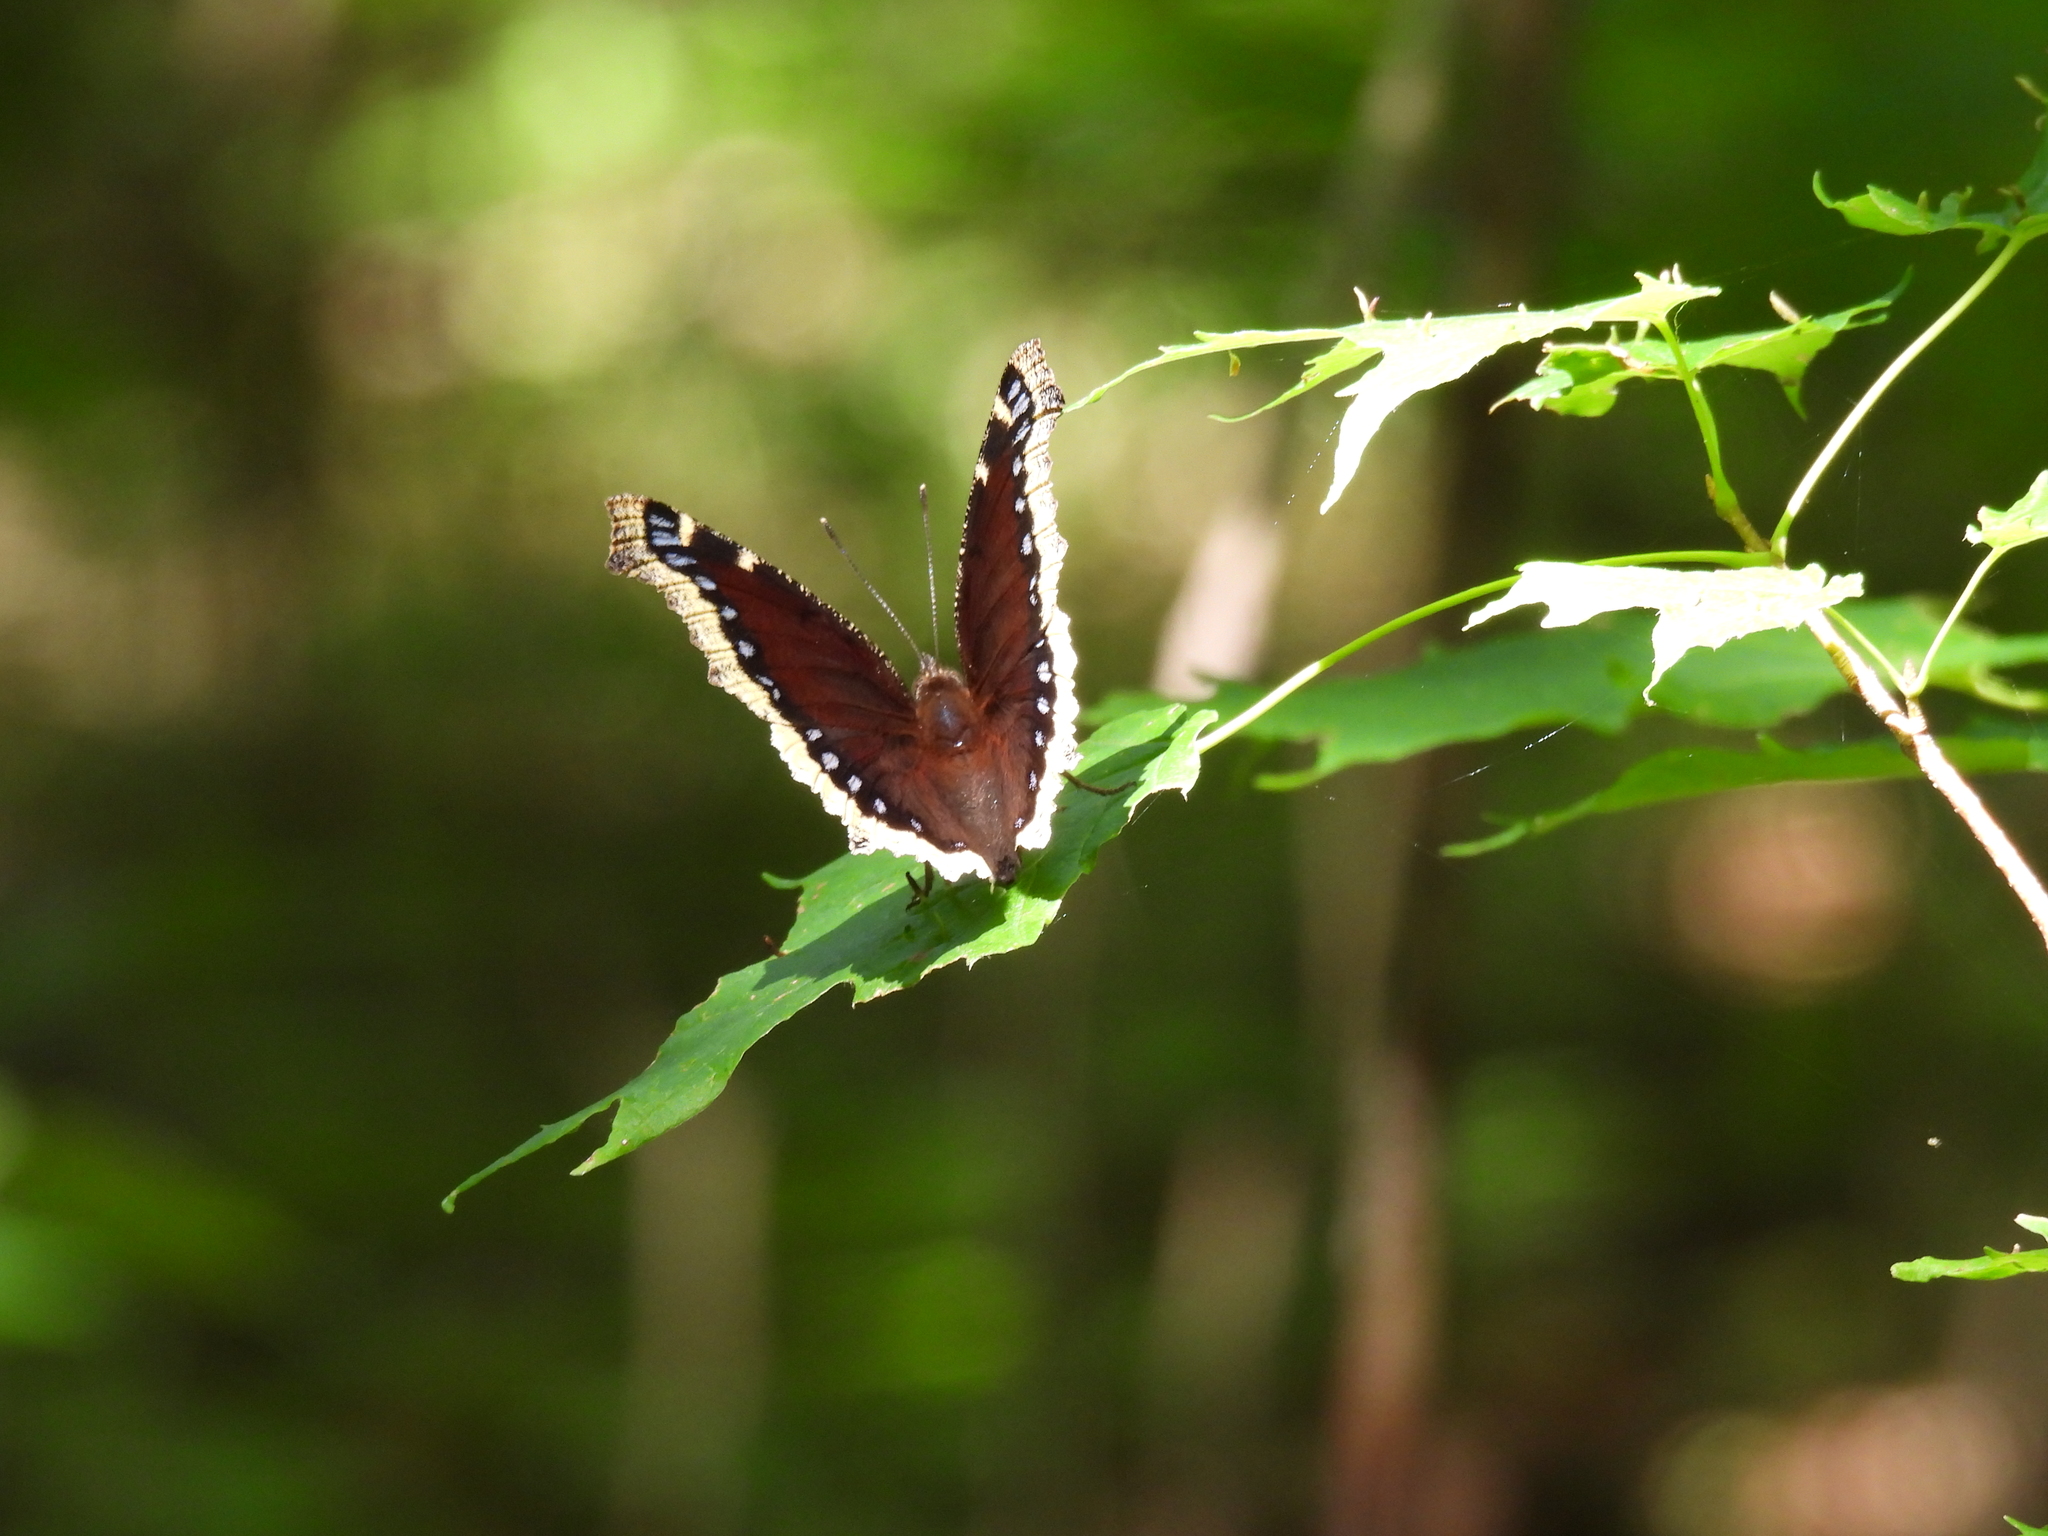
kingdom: Animalia
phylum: Arthropoda
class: Insecta
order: Lepidoptera
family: Nymphalidae
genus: Nymphalis
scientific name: Nymphalis antiopa
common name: Camberwell beauty
